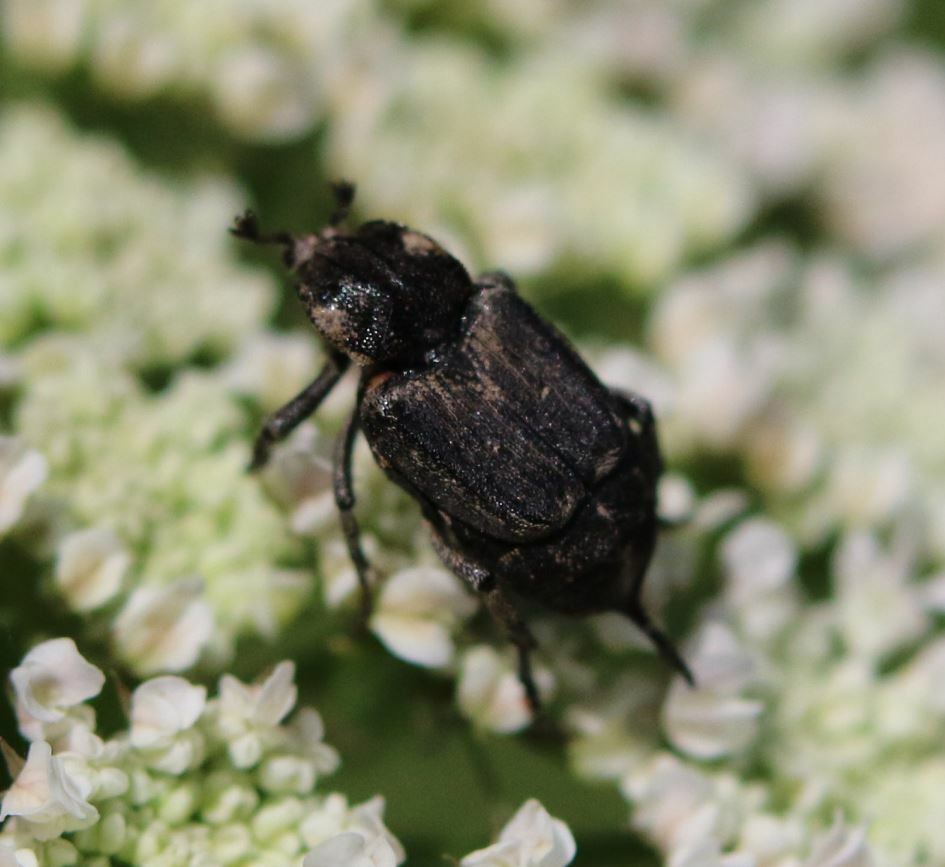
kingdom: Animalia
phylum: Arthropoda
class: Insecta
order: Coleoptera
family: Scarabaeidae
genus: Valgus
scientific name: Valgus hemipterus
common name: Bug flower chafer
